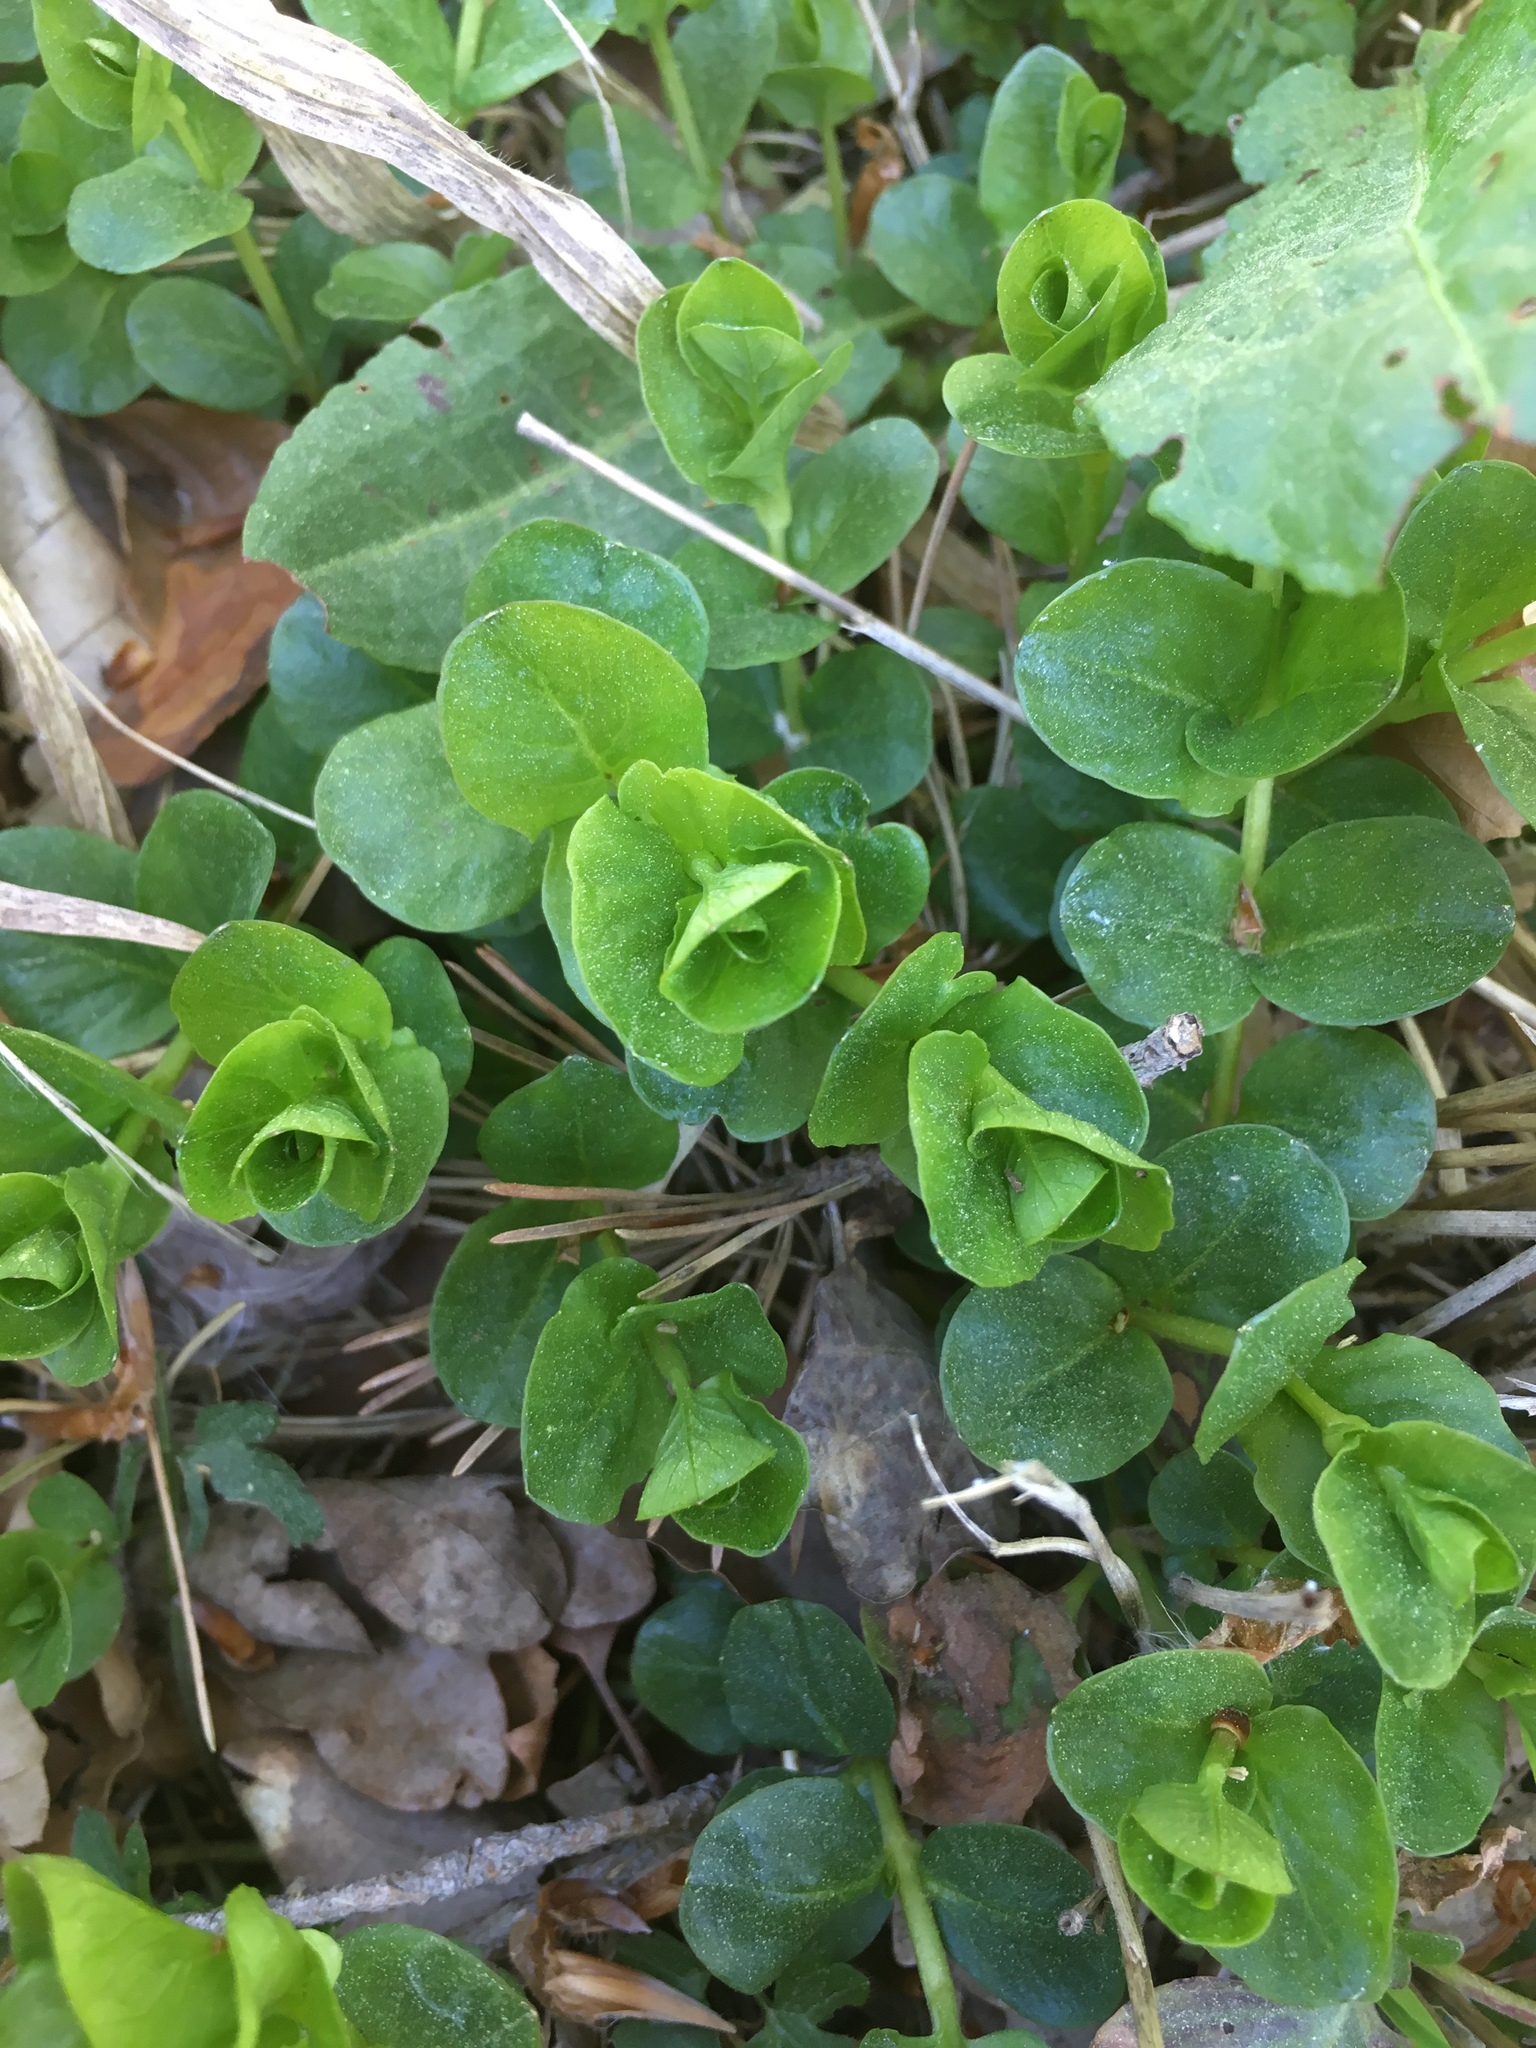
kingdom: Plantae
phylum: Tracheophyta
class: Magnoliopsida
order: Ericales
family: Primulaceae
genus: Lysimachia
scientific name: Lysimachia nummularia
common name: Moneywort
